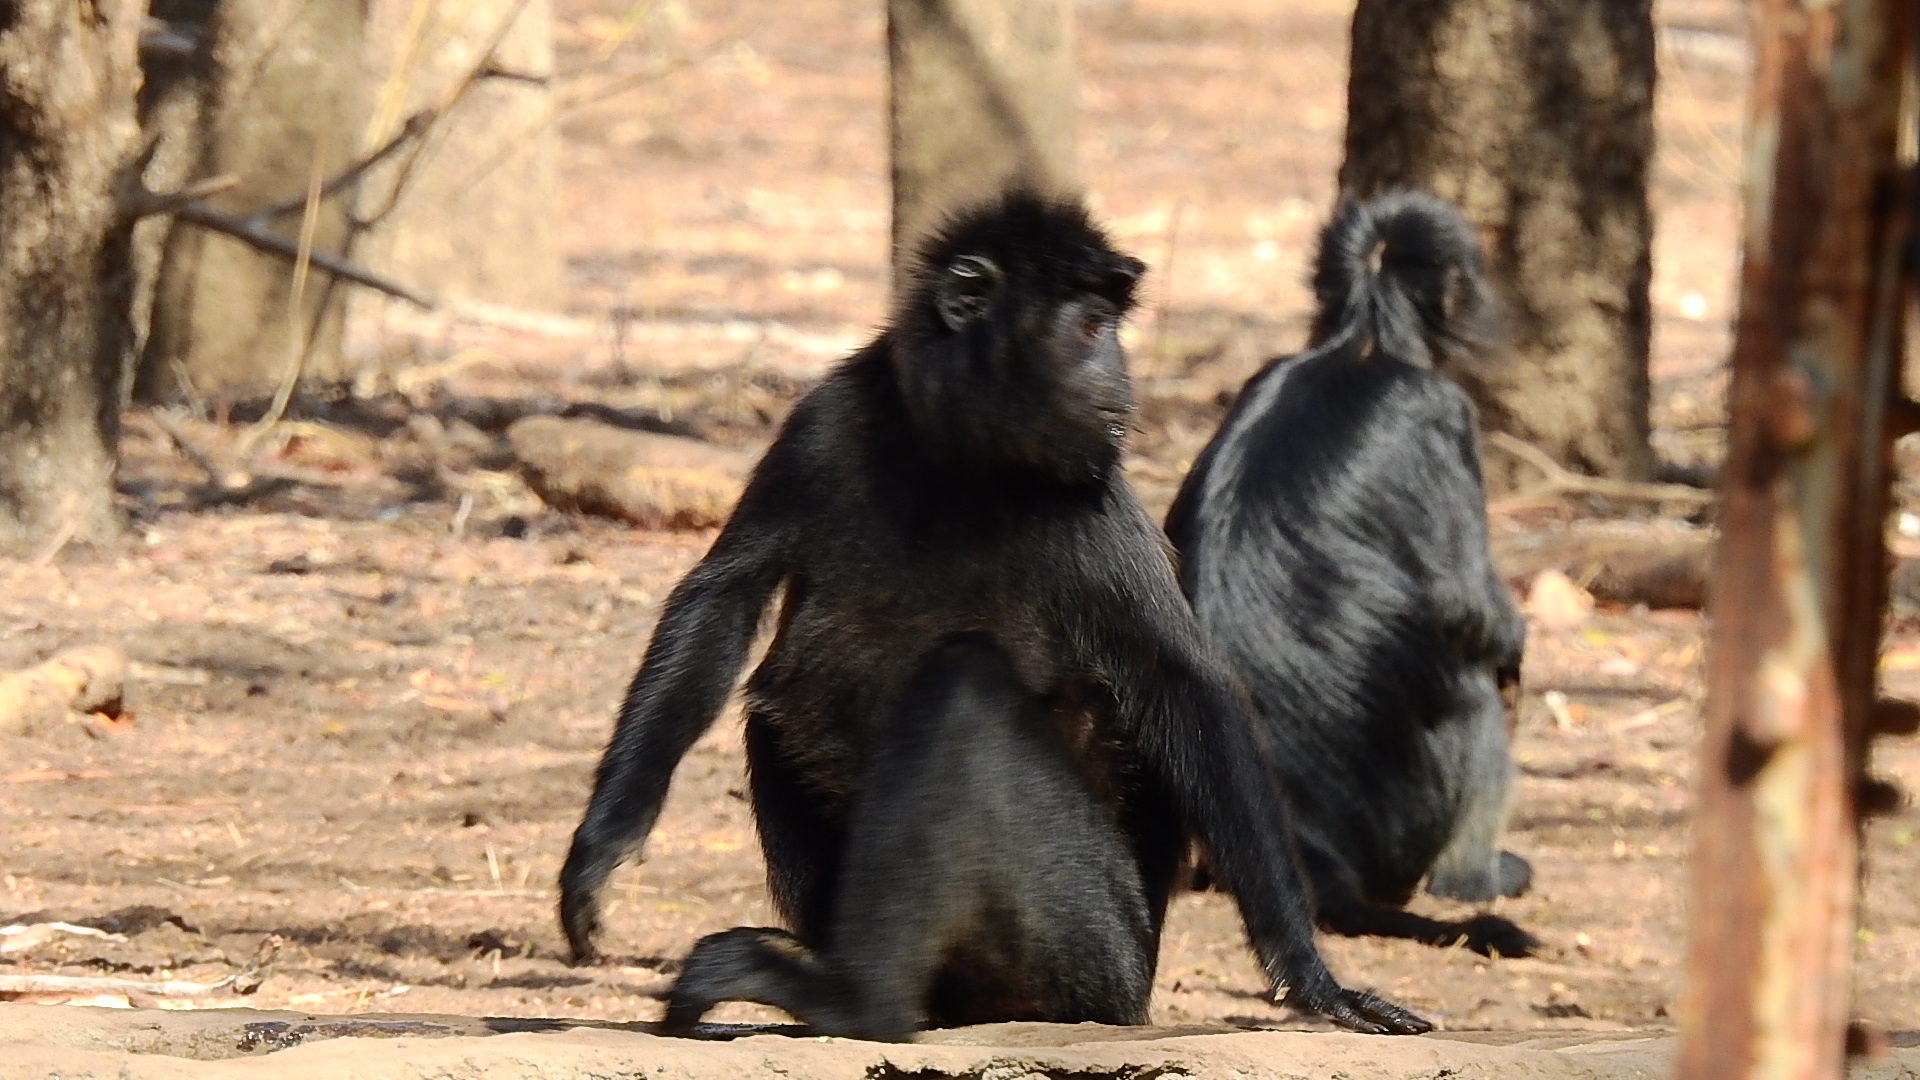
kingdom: Animalia
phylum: Chordata
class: Mammalia
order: Primates
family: Cercopithecidae
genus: Trachypithecus
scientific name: Trachypithecus auratus
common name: Javan lutung
